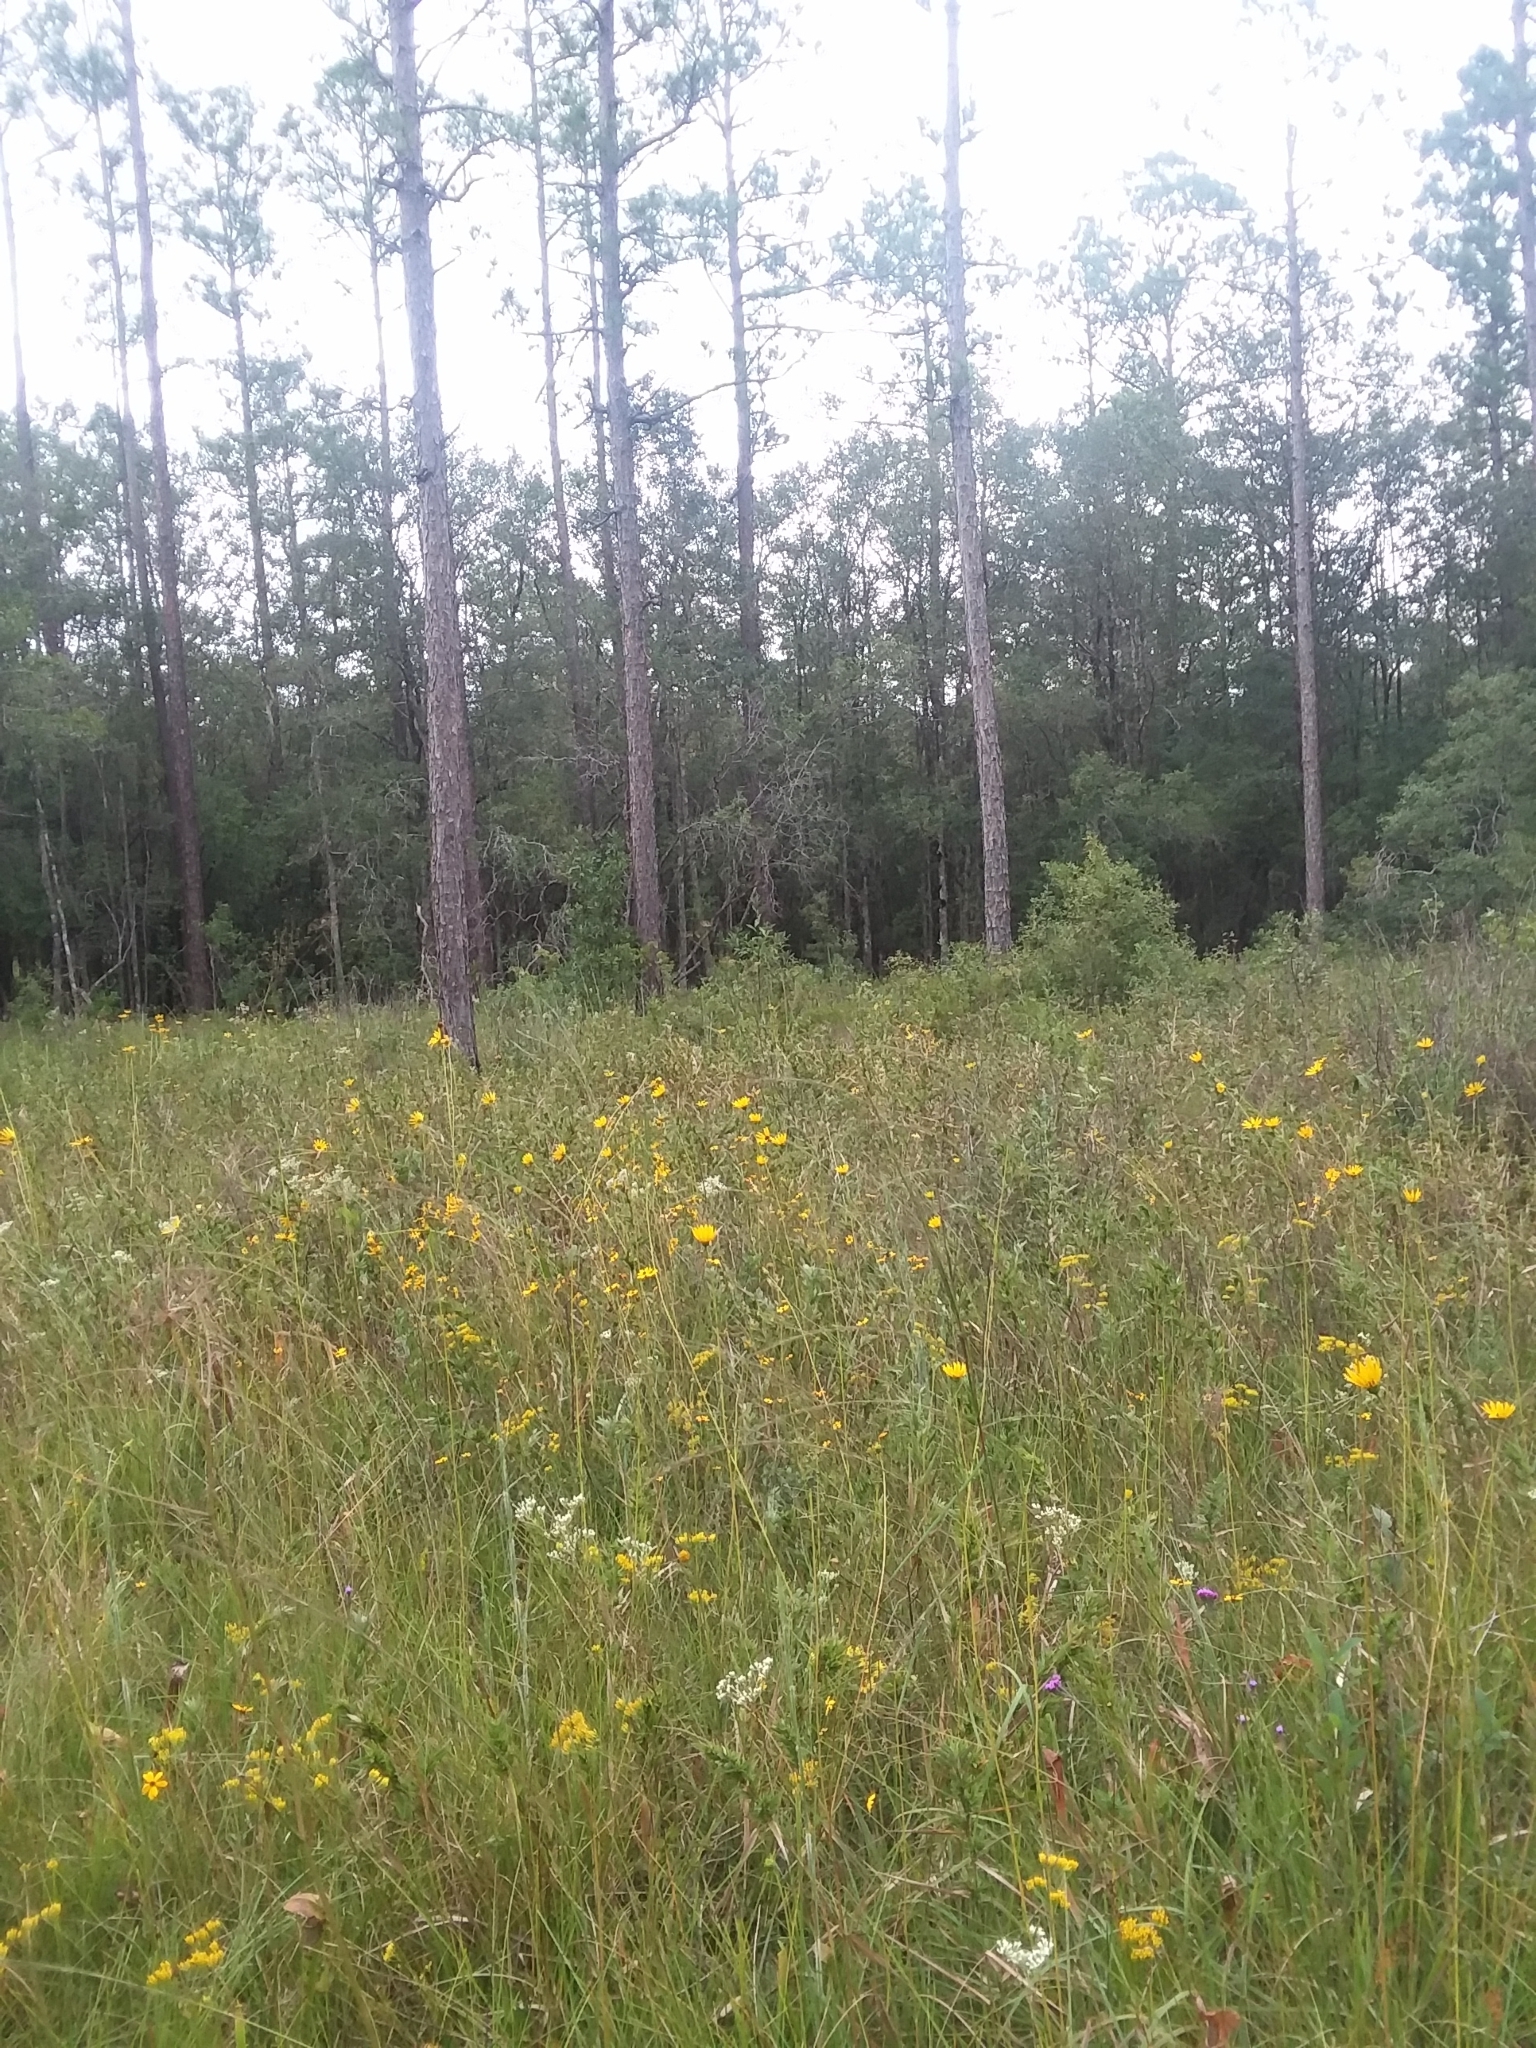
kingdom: Plantae
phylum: Tracheophyta
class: Magnoliopsida
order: Asterales
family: Asteraceae
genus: Coreopsis
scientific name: Coreopsis gladiata
